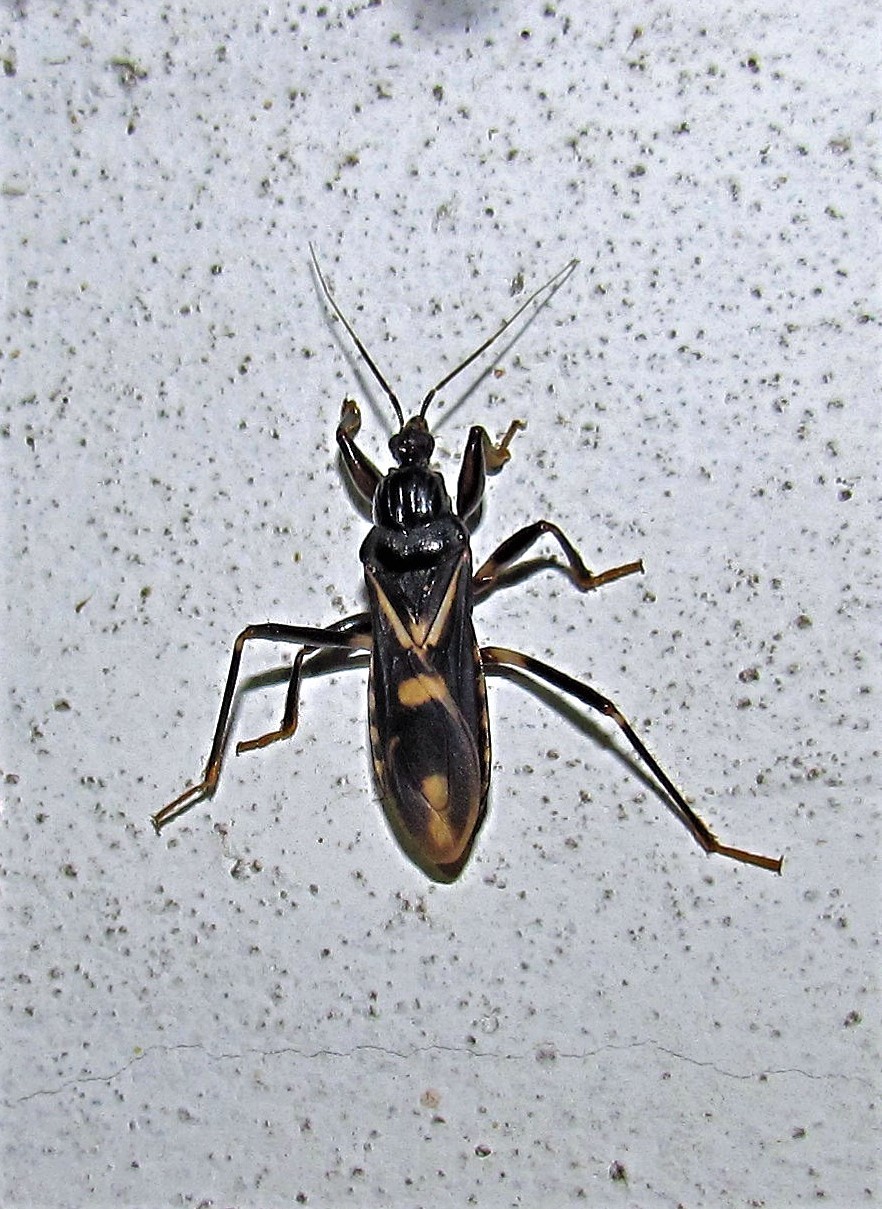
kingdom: Animalia
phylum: Arthropoda
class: Insecta
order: Hemiptera
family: Reduviidae
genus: Rasahus
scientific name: Rasahus sulcicollis
